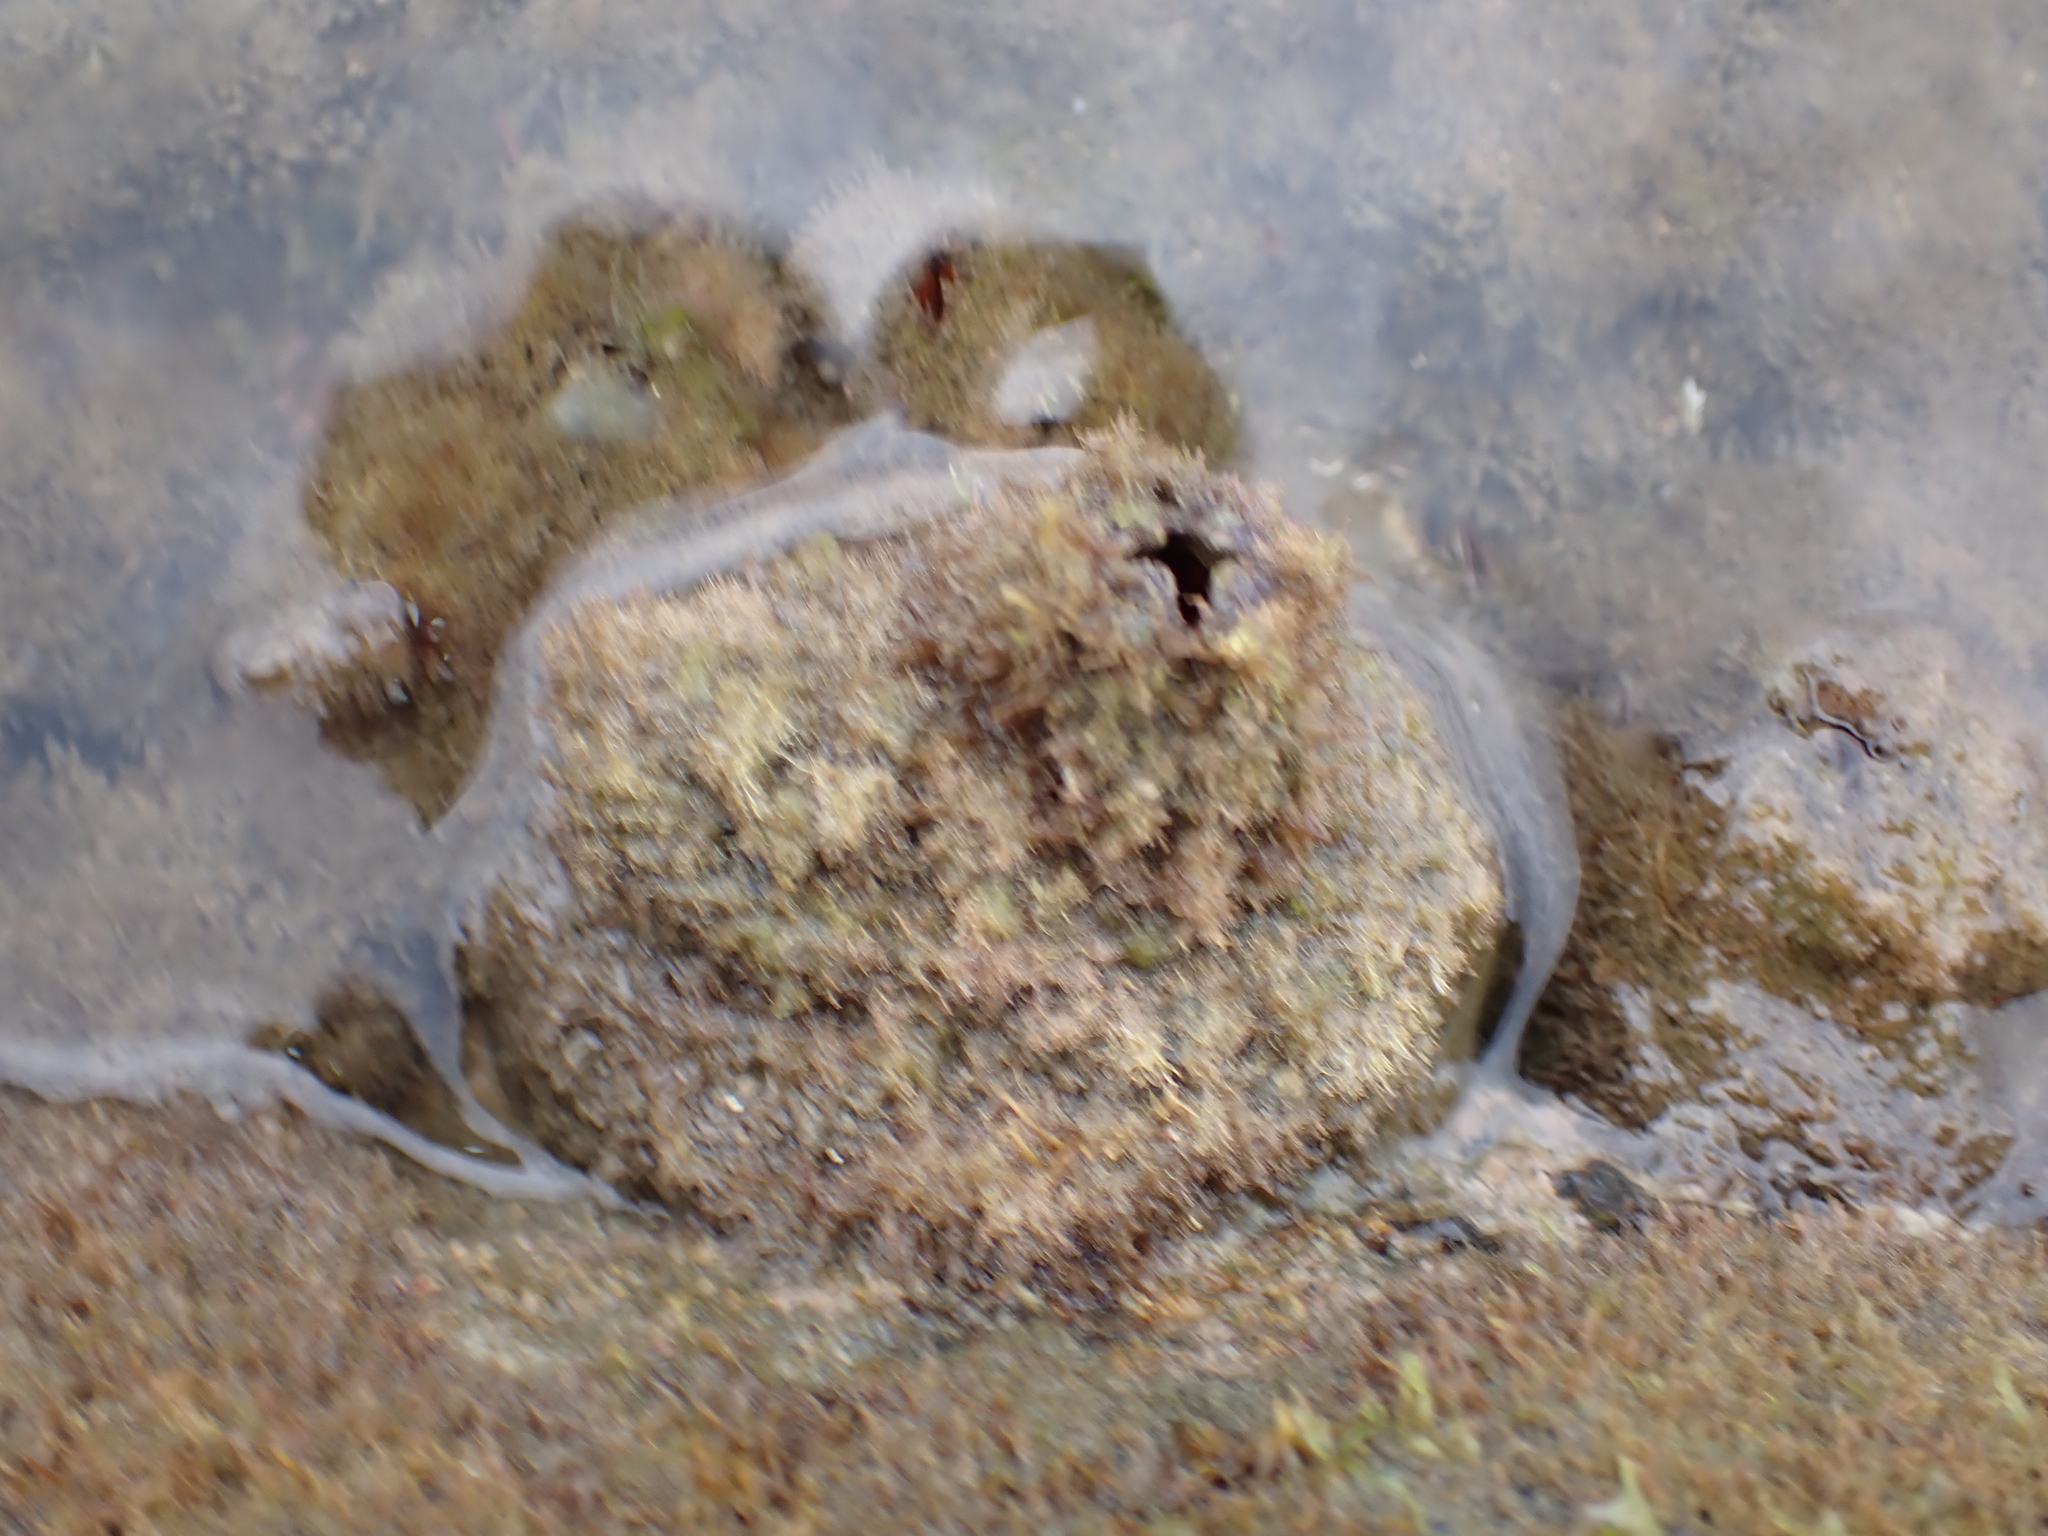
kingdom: Animalia
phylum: Chordata
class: Ascidiacea
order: Stolidobranchia
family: Pyuridae
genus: Pyura
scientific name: Pyura praeputialis
